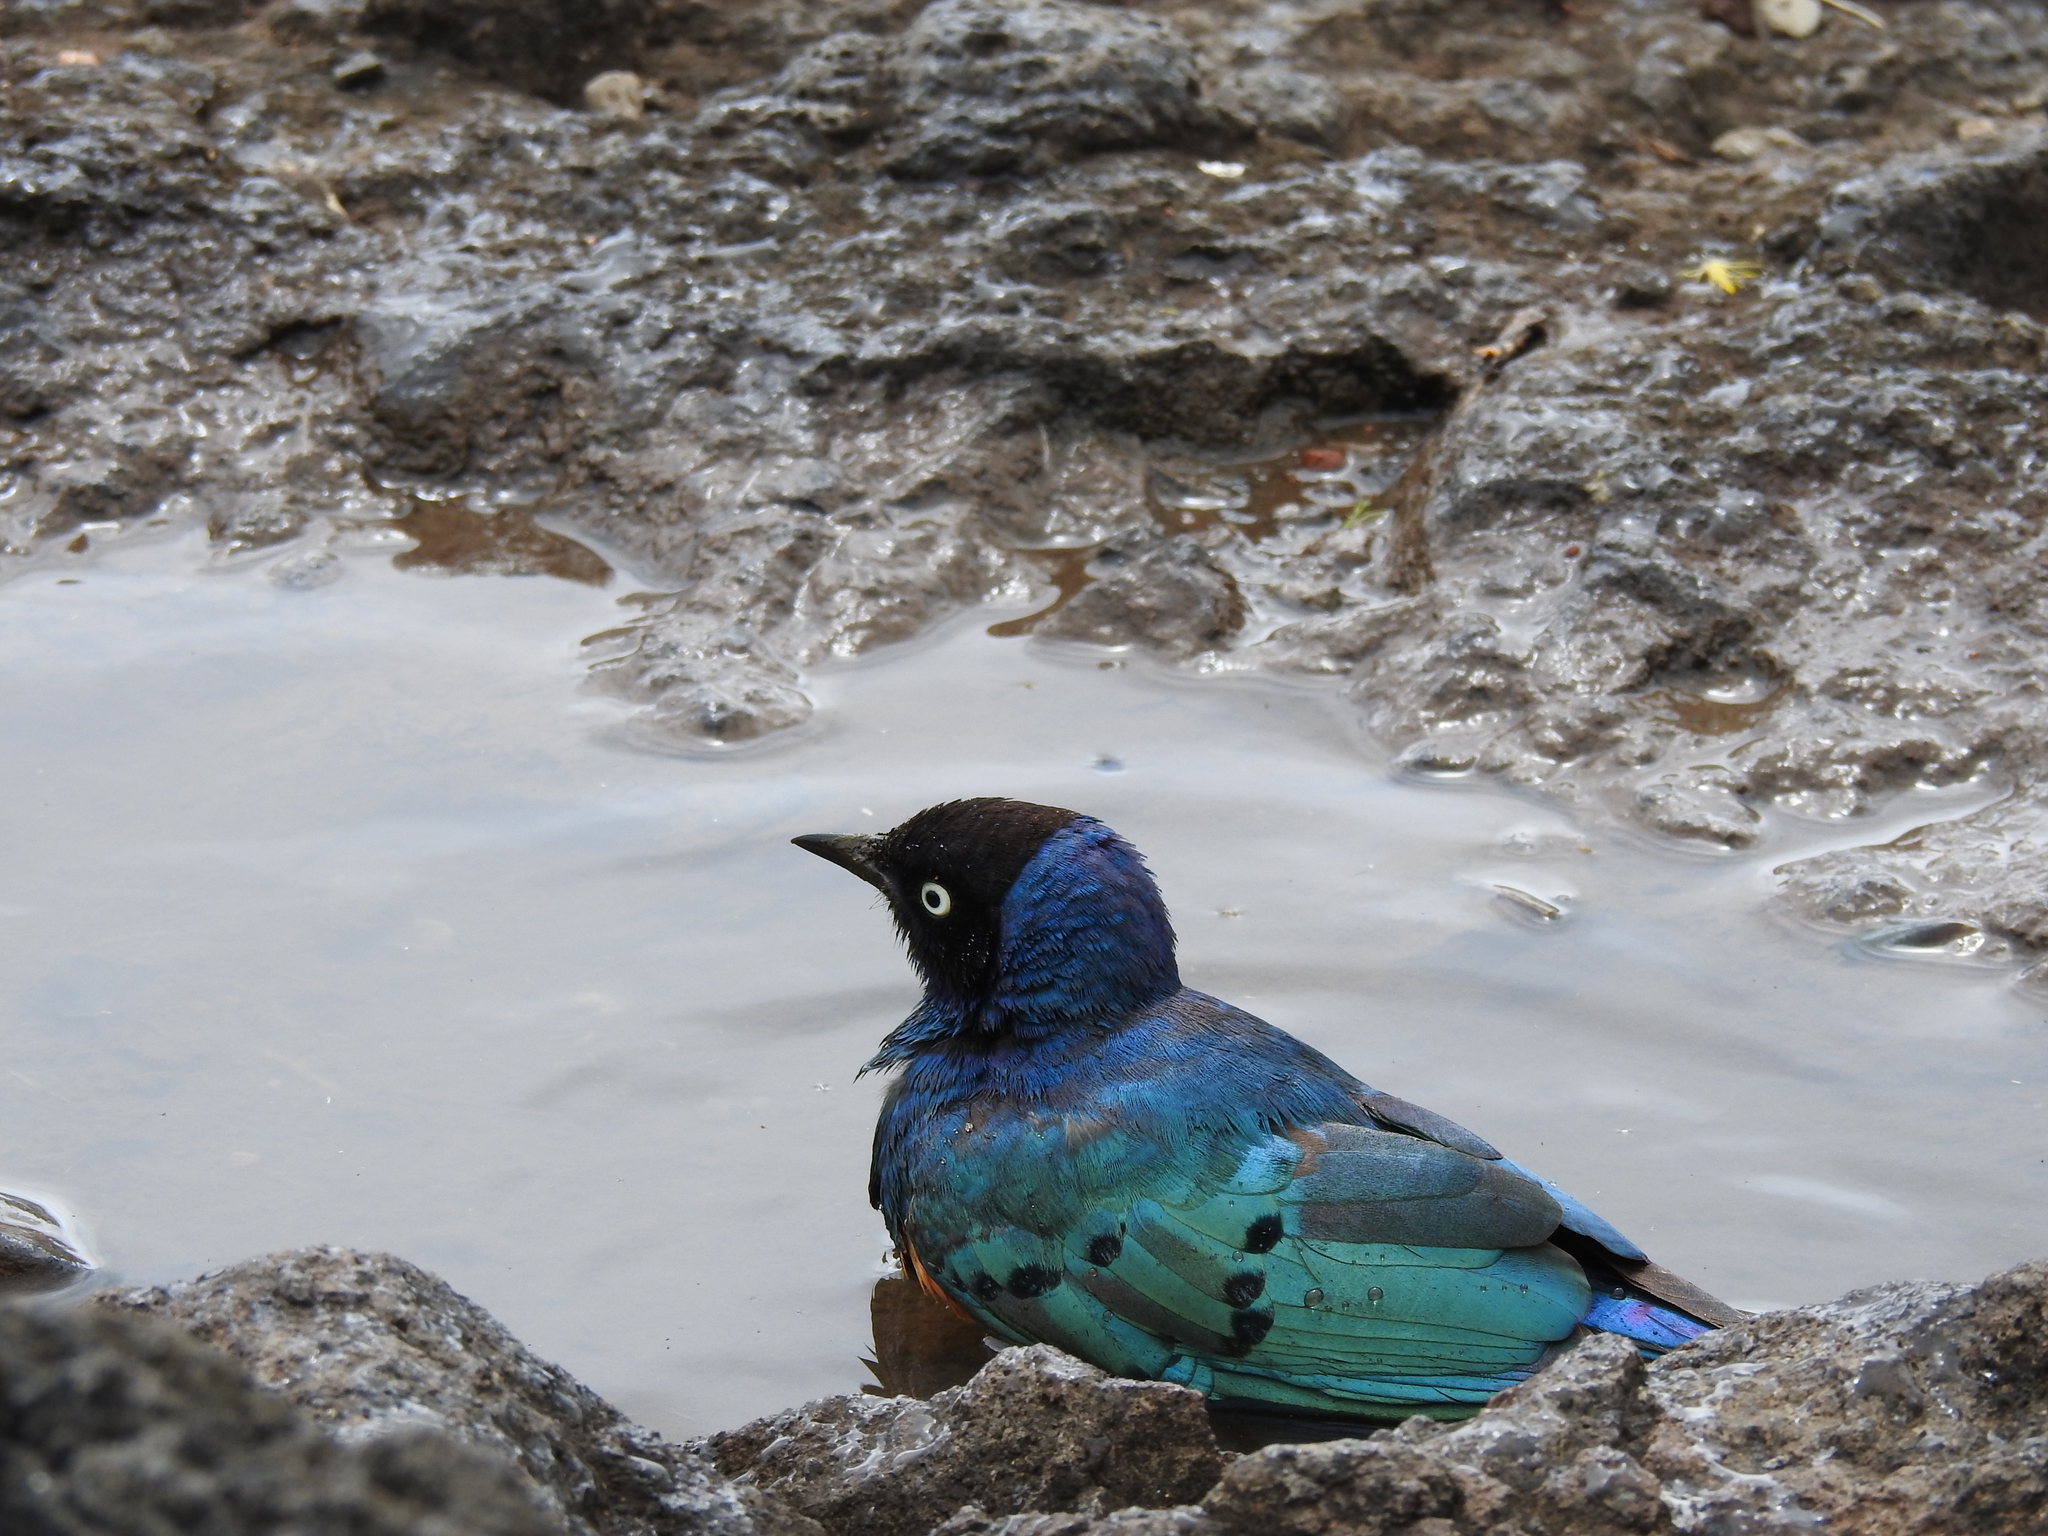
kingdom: Animalia
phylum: Chordata
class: Aves
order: Passeriformes
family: Sturnidae
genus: Lamprotornis
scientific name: Lamprotornis superbus
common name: Superb starling
